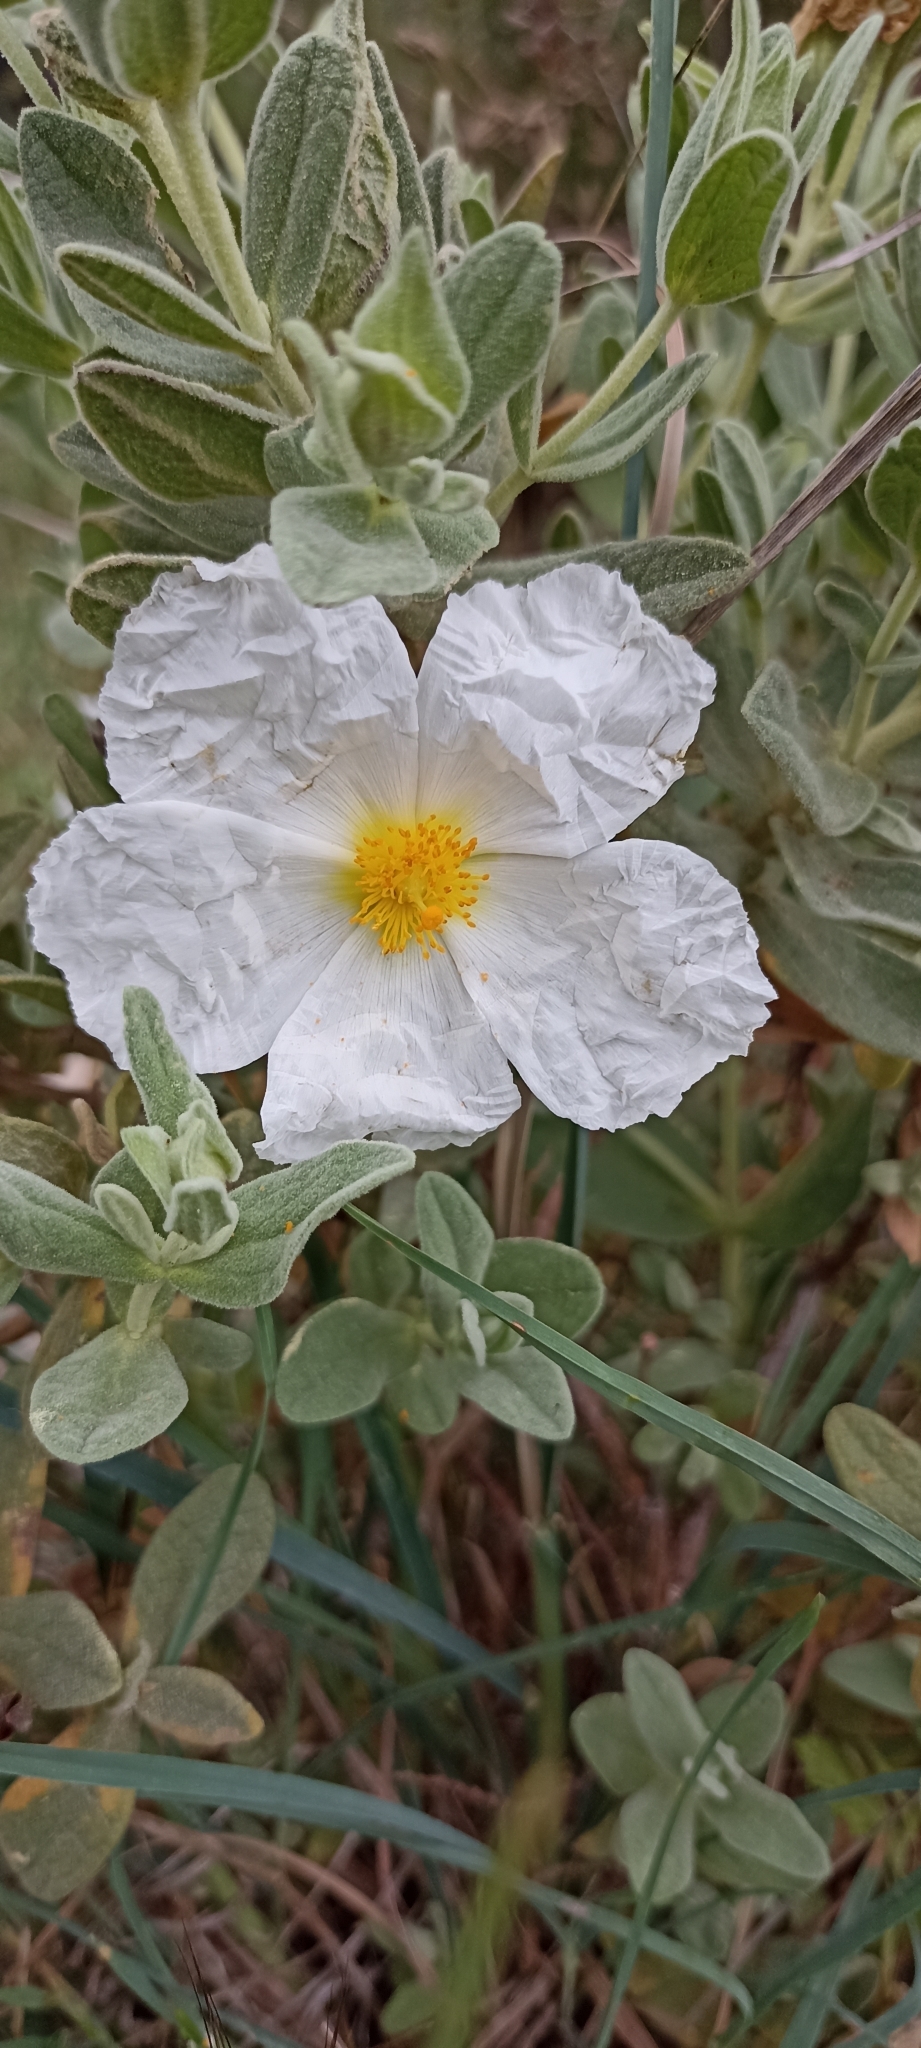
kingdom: Plantae
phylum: Tracheophyta
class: Magnoliopsida
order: Malvales
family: Cistaceae
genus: Cistus
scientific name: Cistus albidus
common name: White-leaf rock-rose
